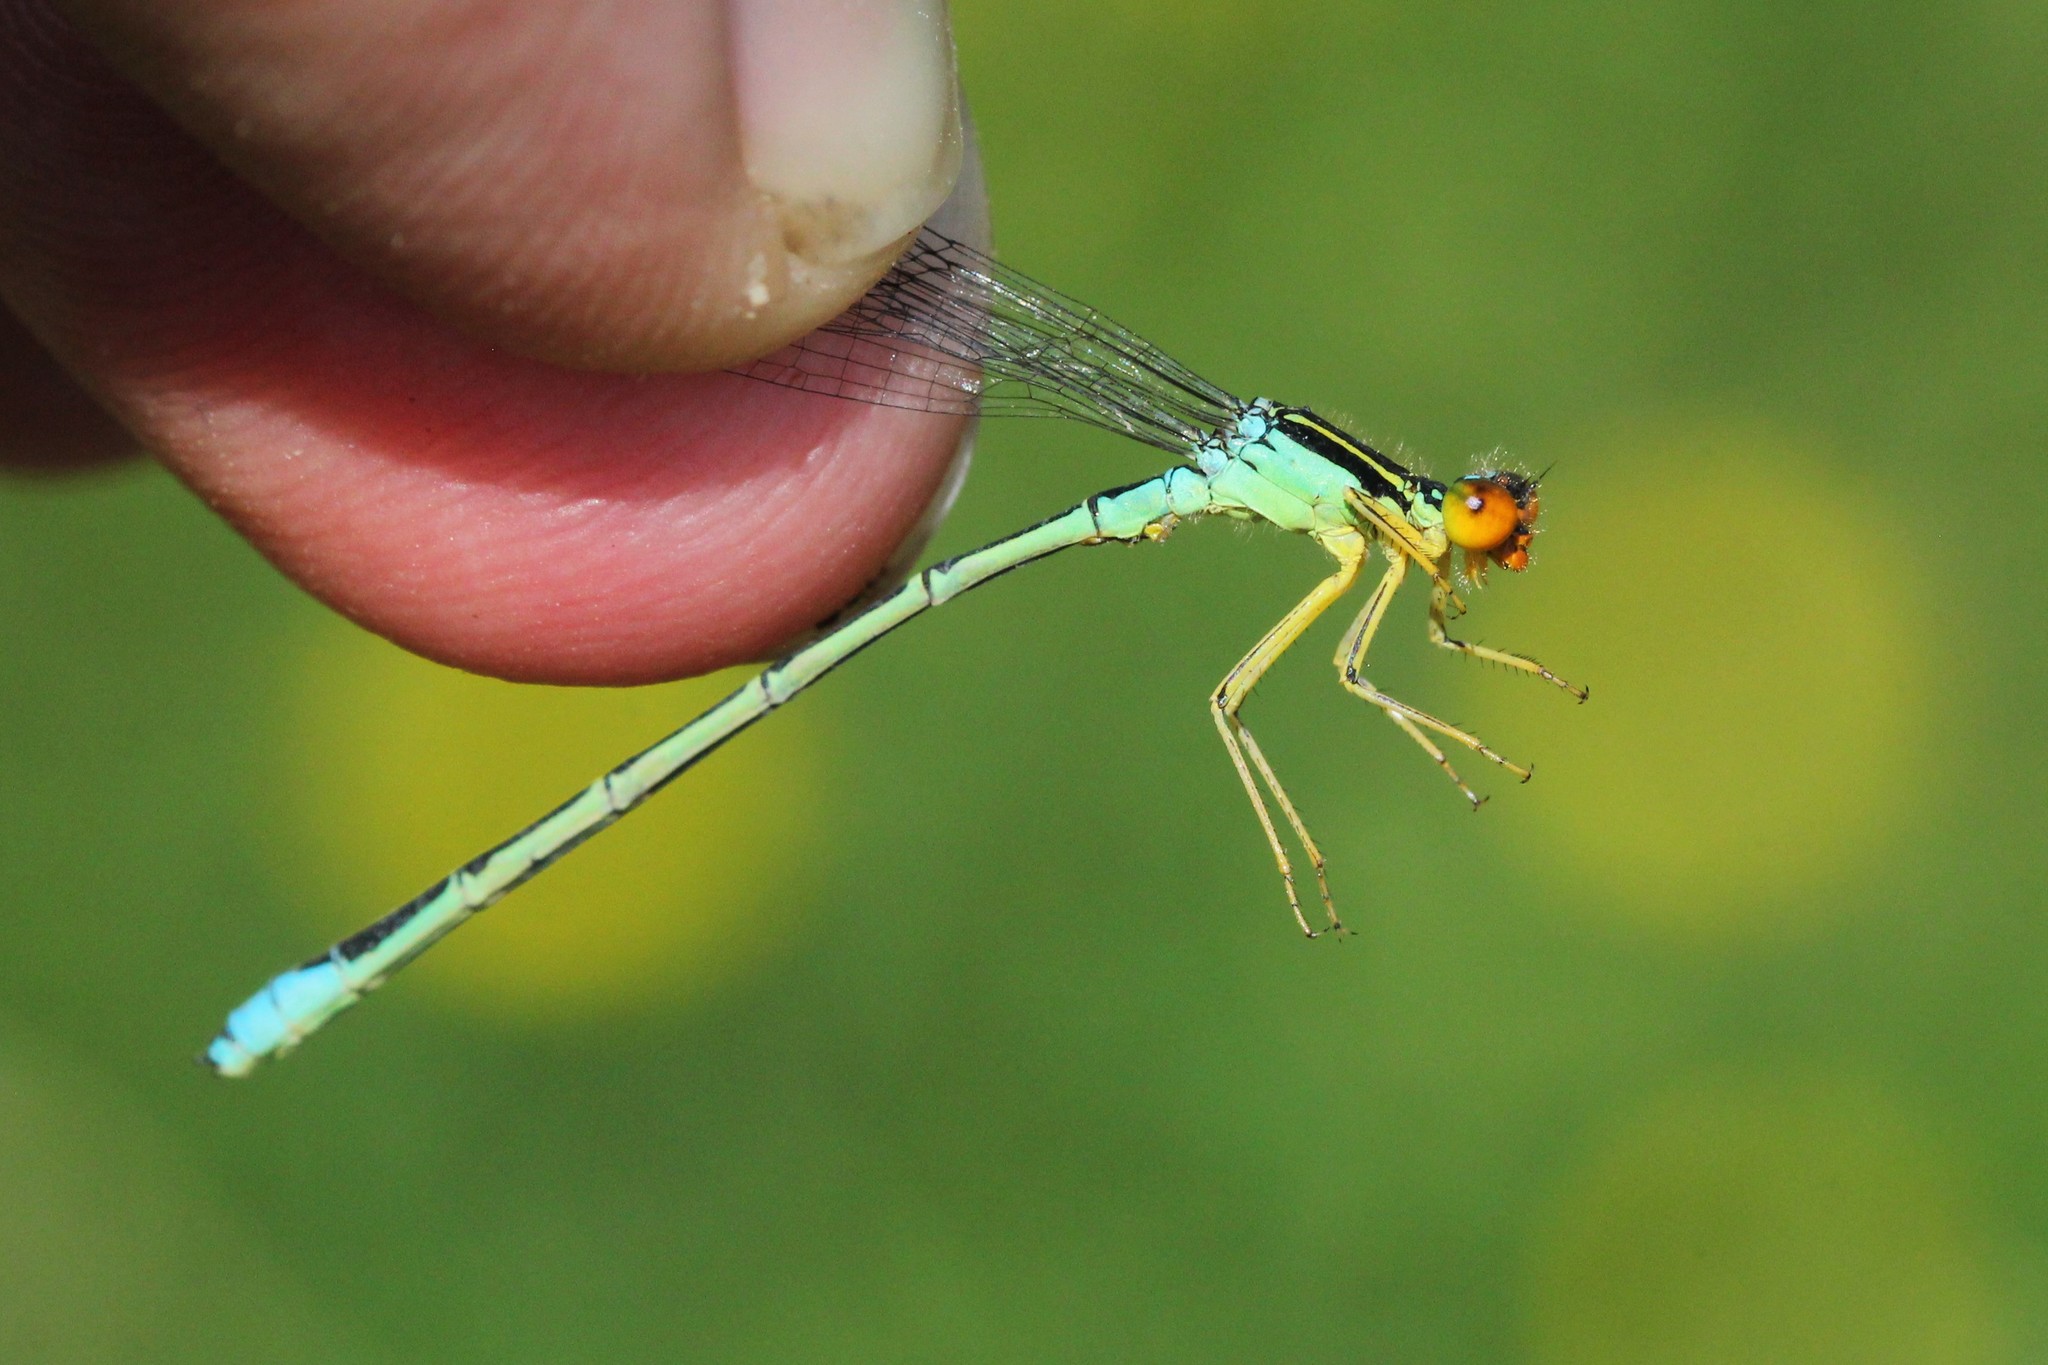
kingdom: Animalia
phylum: Arthropoda
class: Insecta
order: Odonata
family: Coenagrionidae
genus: Enallagma
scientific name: Enallagma antennatum
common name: Rainbow bluet
